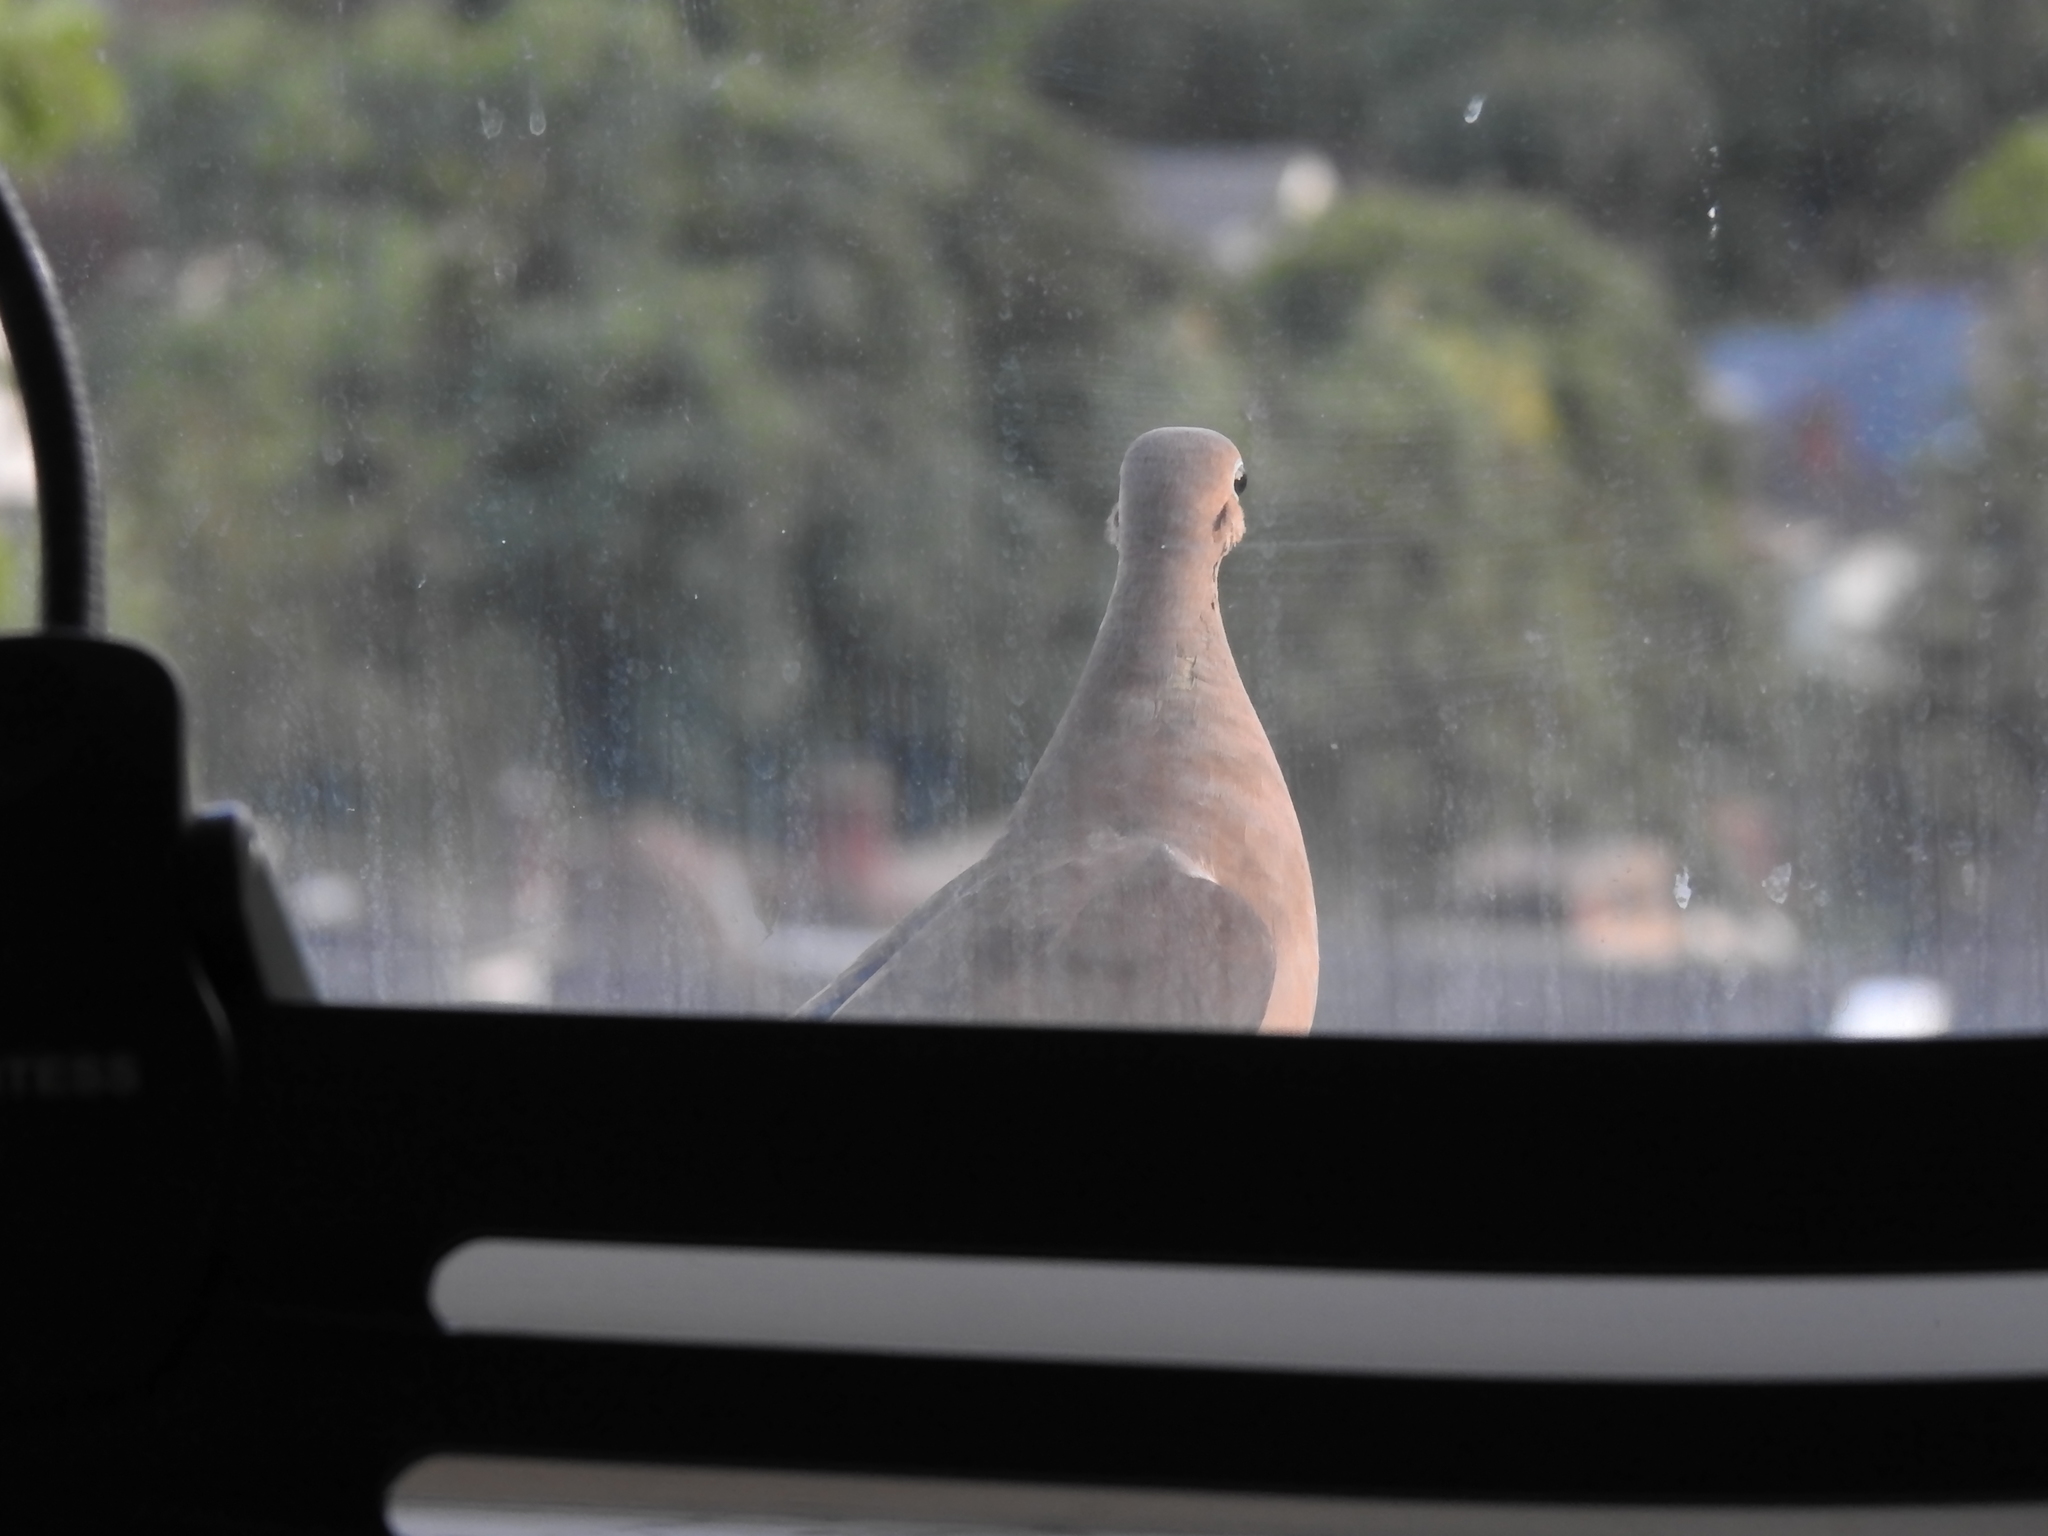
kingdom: Animalia
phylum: Chordata
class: Aves
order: Columbiformes
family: Columbidae
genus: Zenaida
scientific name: Zenaida macroura
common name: Mourning dove
